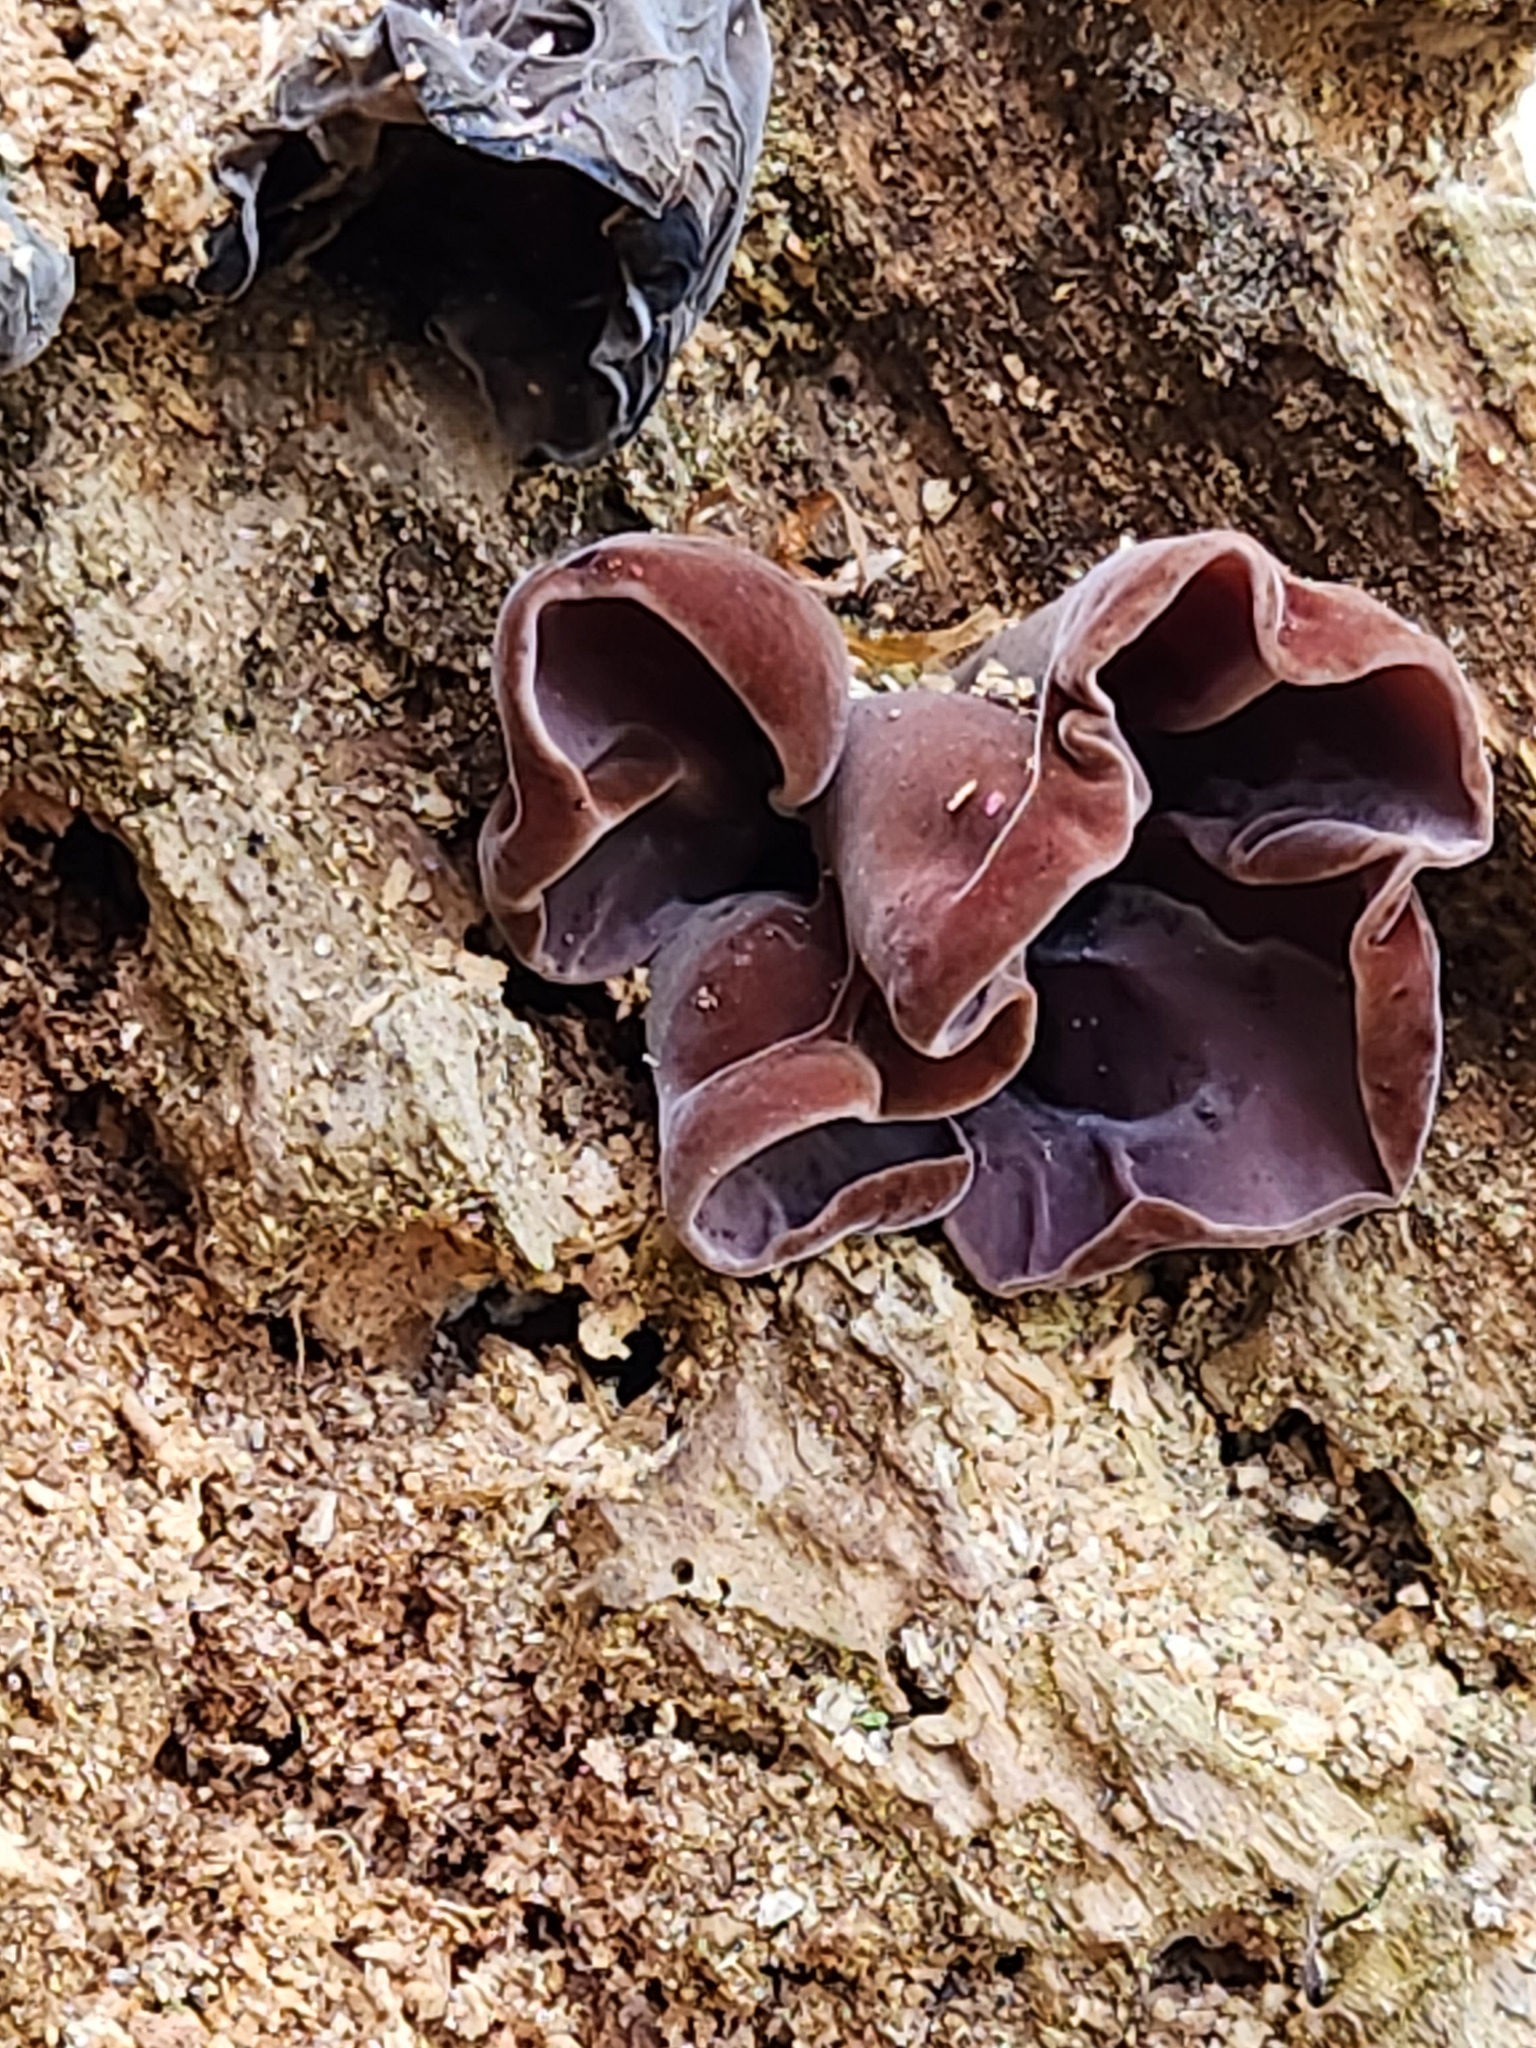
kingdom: Fungi
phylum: Basidiomycota
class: Agaricomycetes
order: Auriculariales
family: Auriculariaceae
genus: Auricularia
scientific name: Auricularia nigricans
